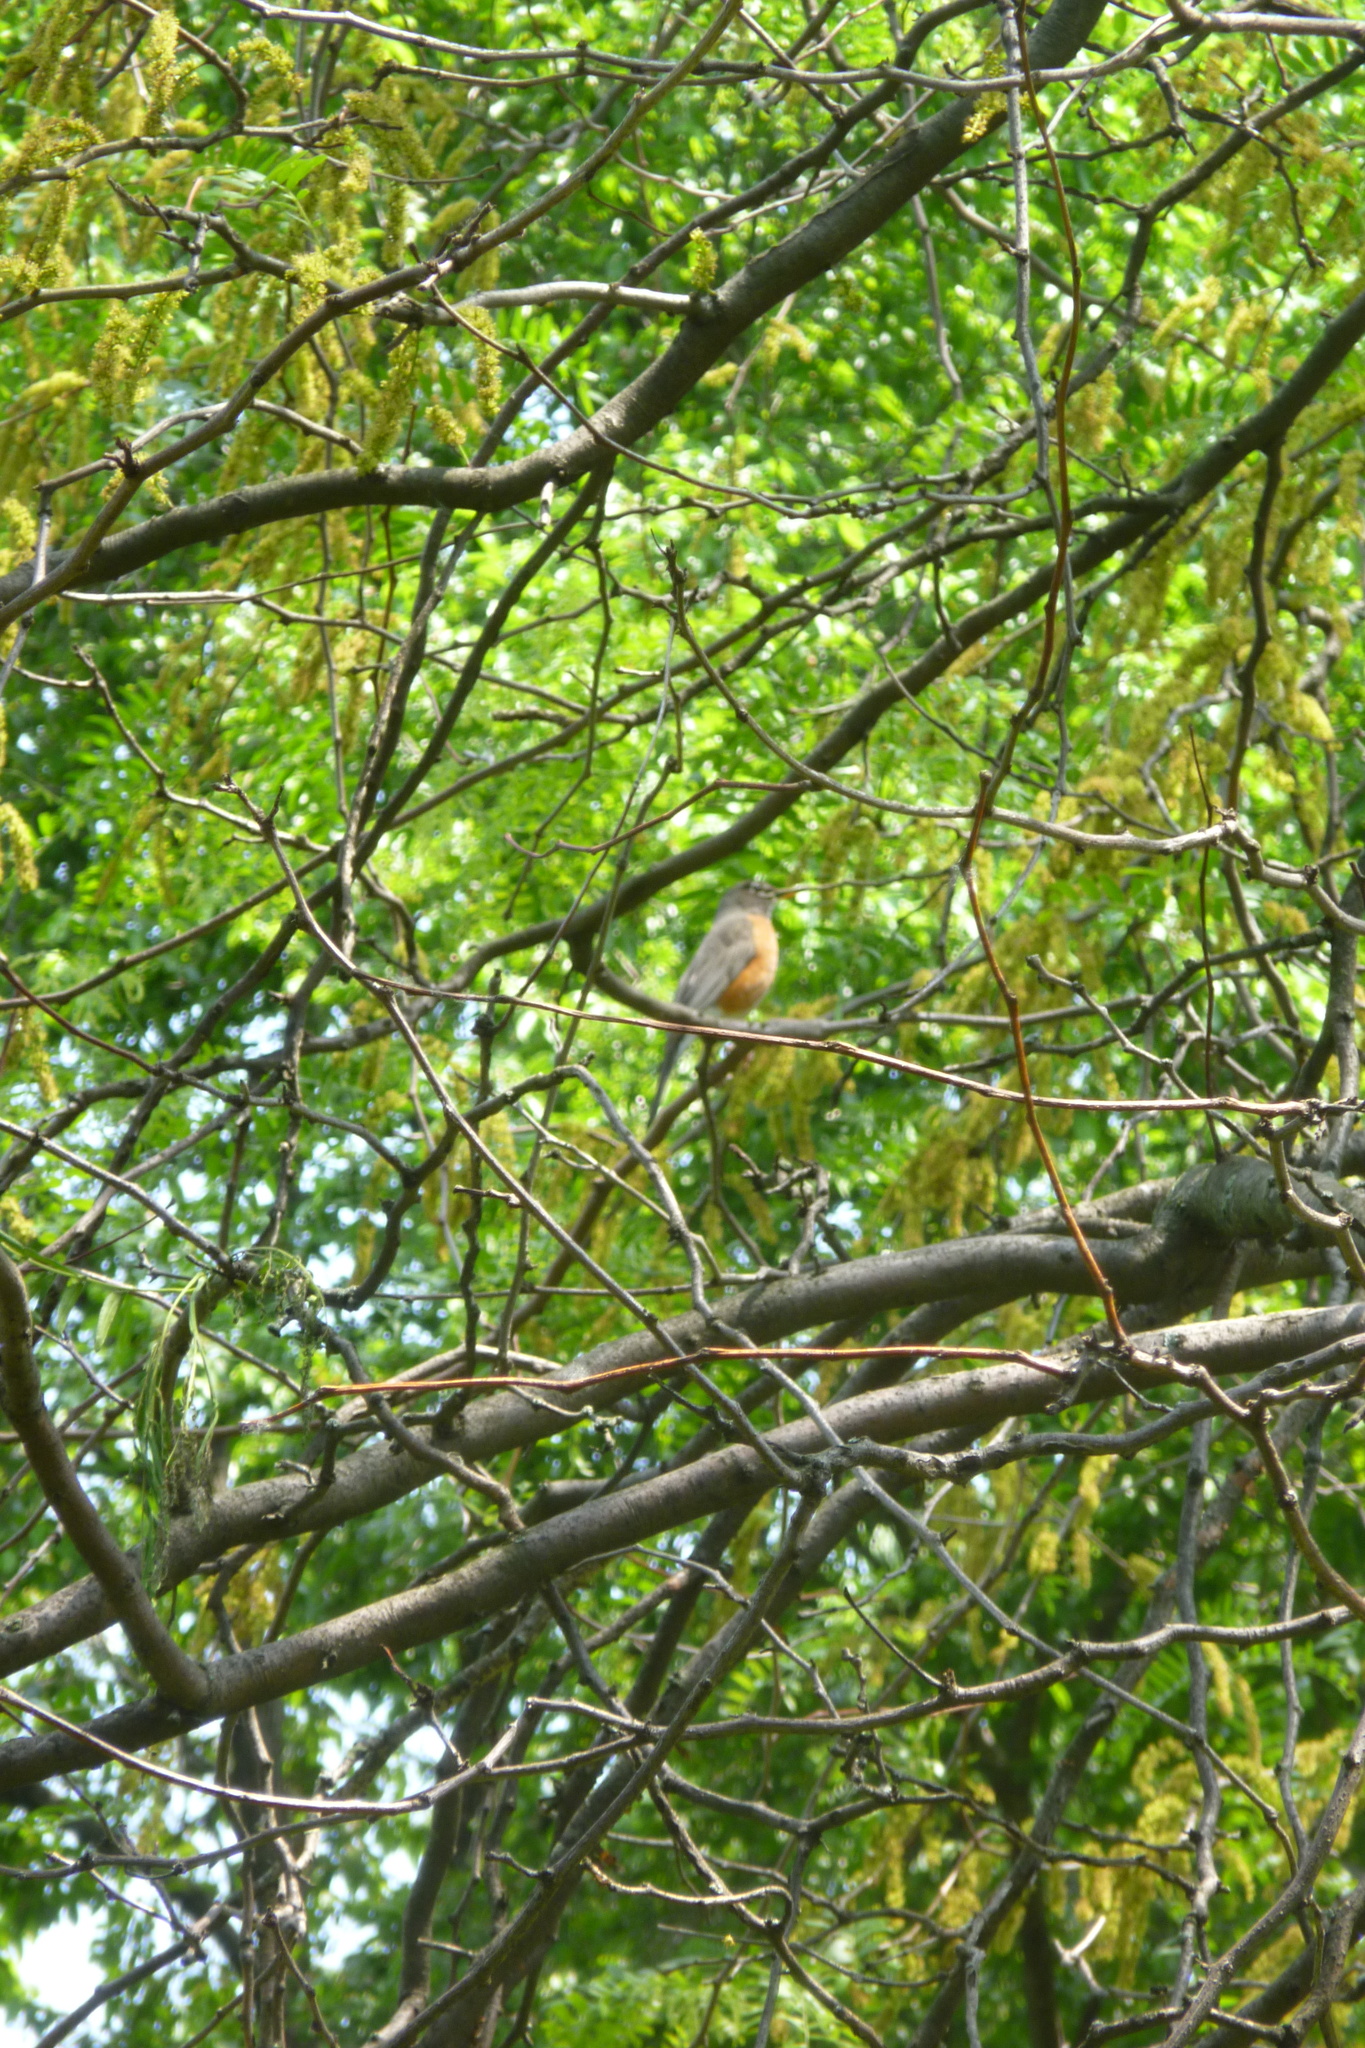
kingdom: Animalia
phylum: Chordata
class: Aves
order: Passeriformes
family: Turdidae
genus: Turdus
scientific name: Turdus migratorius
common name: American robin
